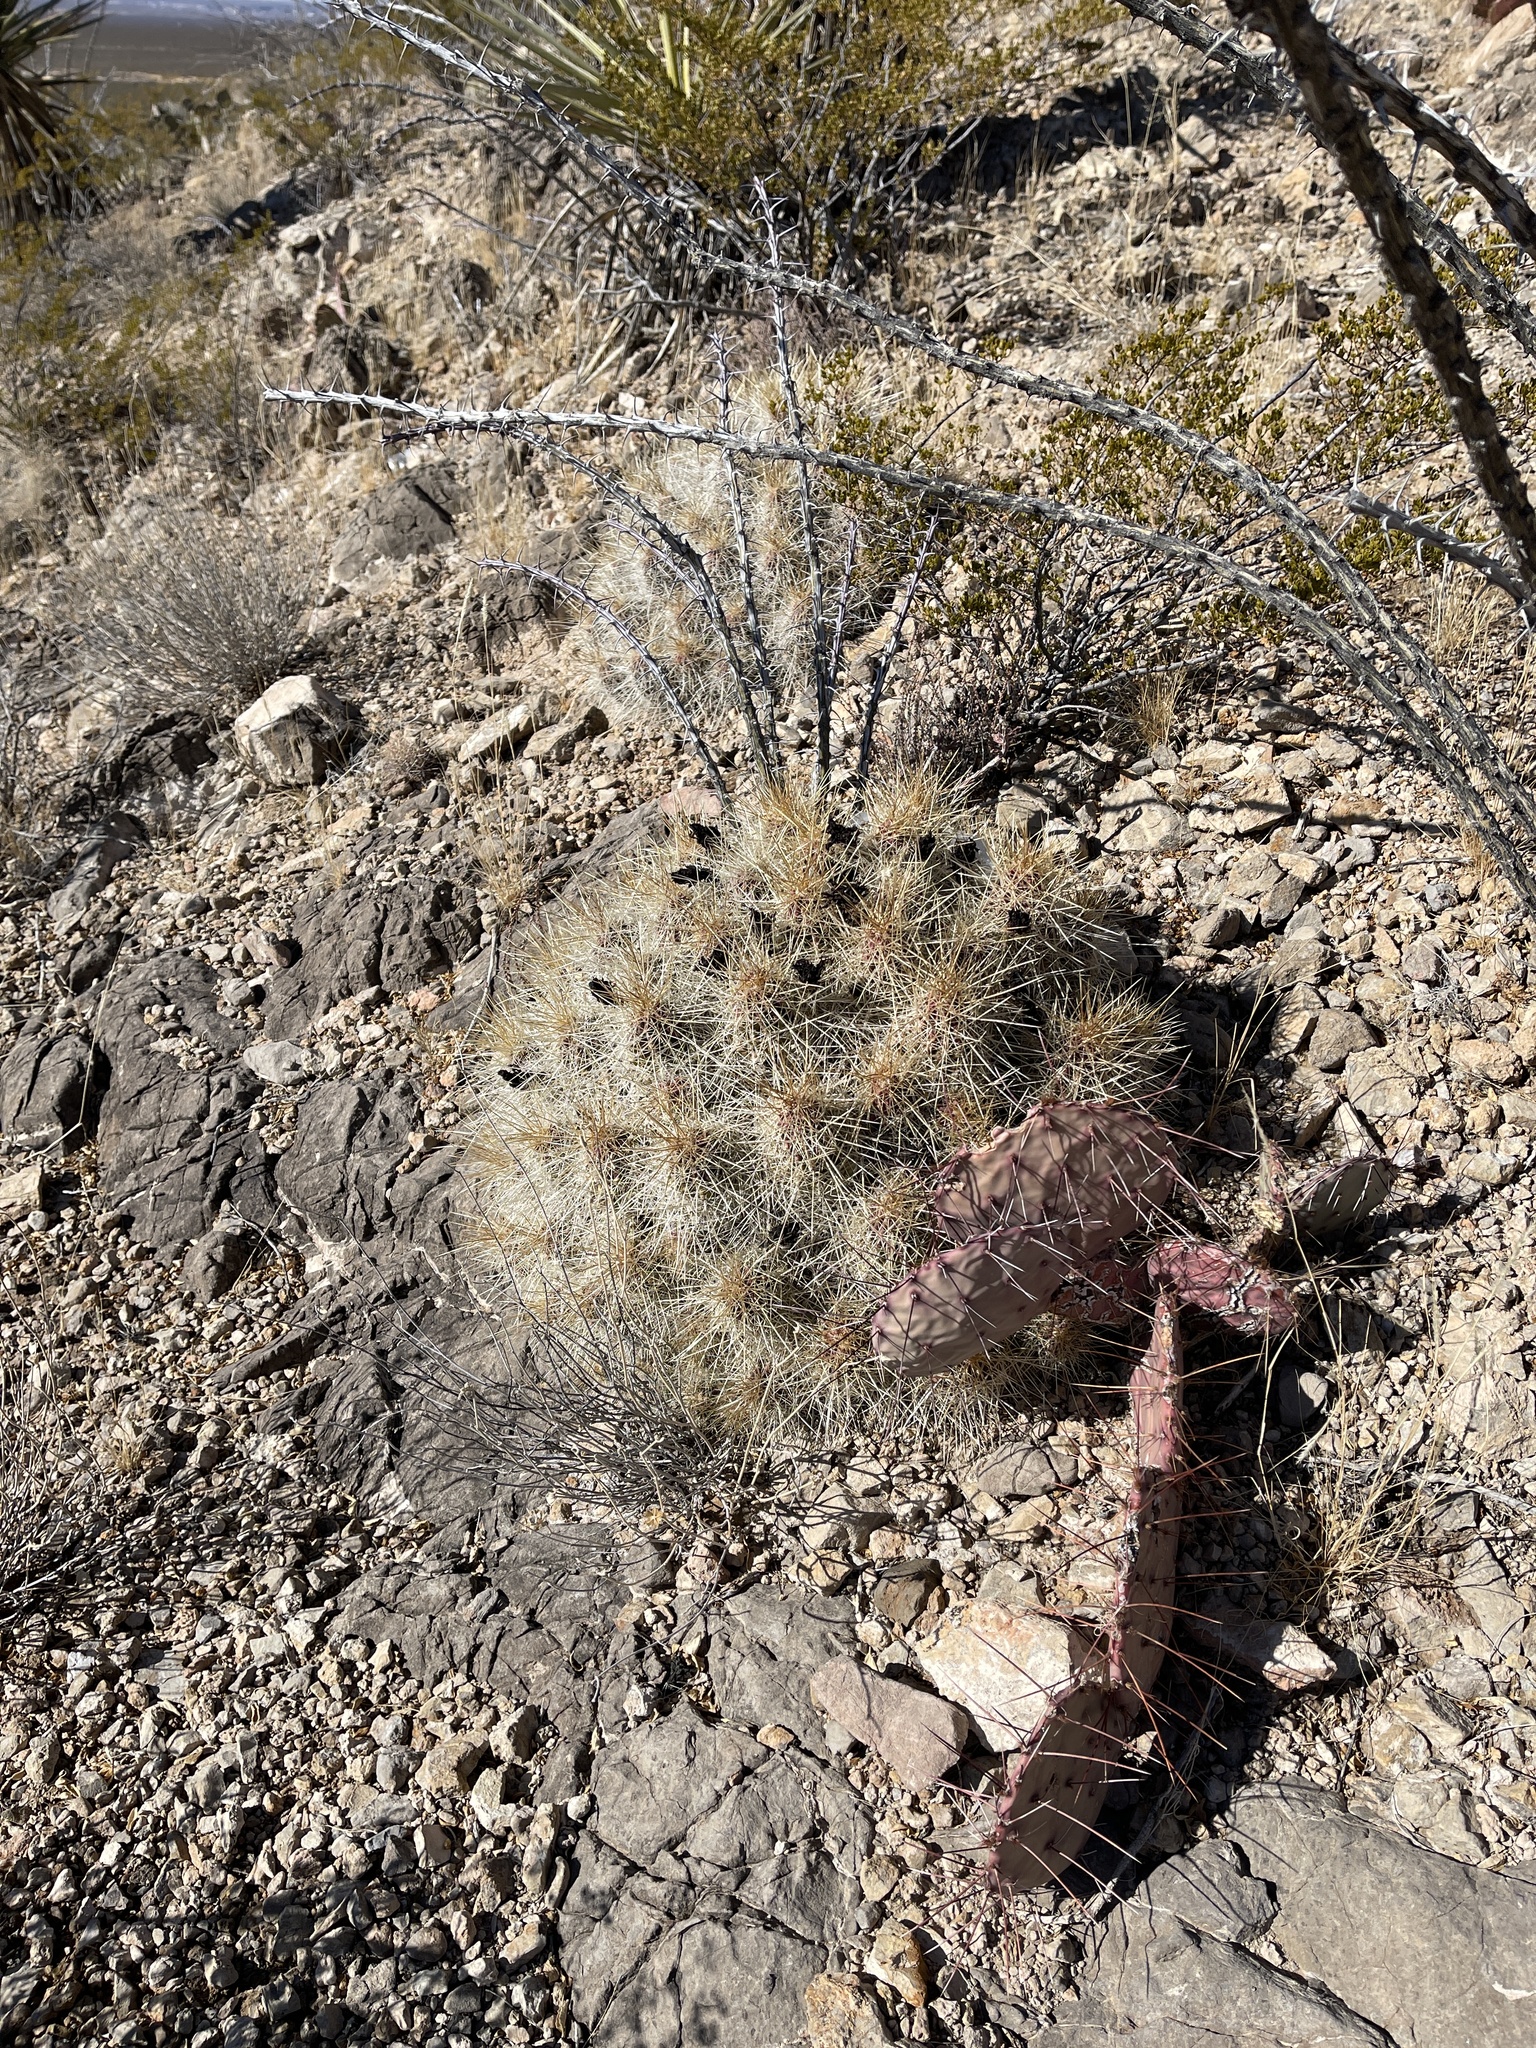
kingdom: Plantae
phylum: Tracheophyta
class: Magnoliopsida
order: Caryophyllales
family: Cactaceae
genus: Echinocereus
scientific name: Echinocereus stramineus
